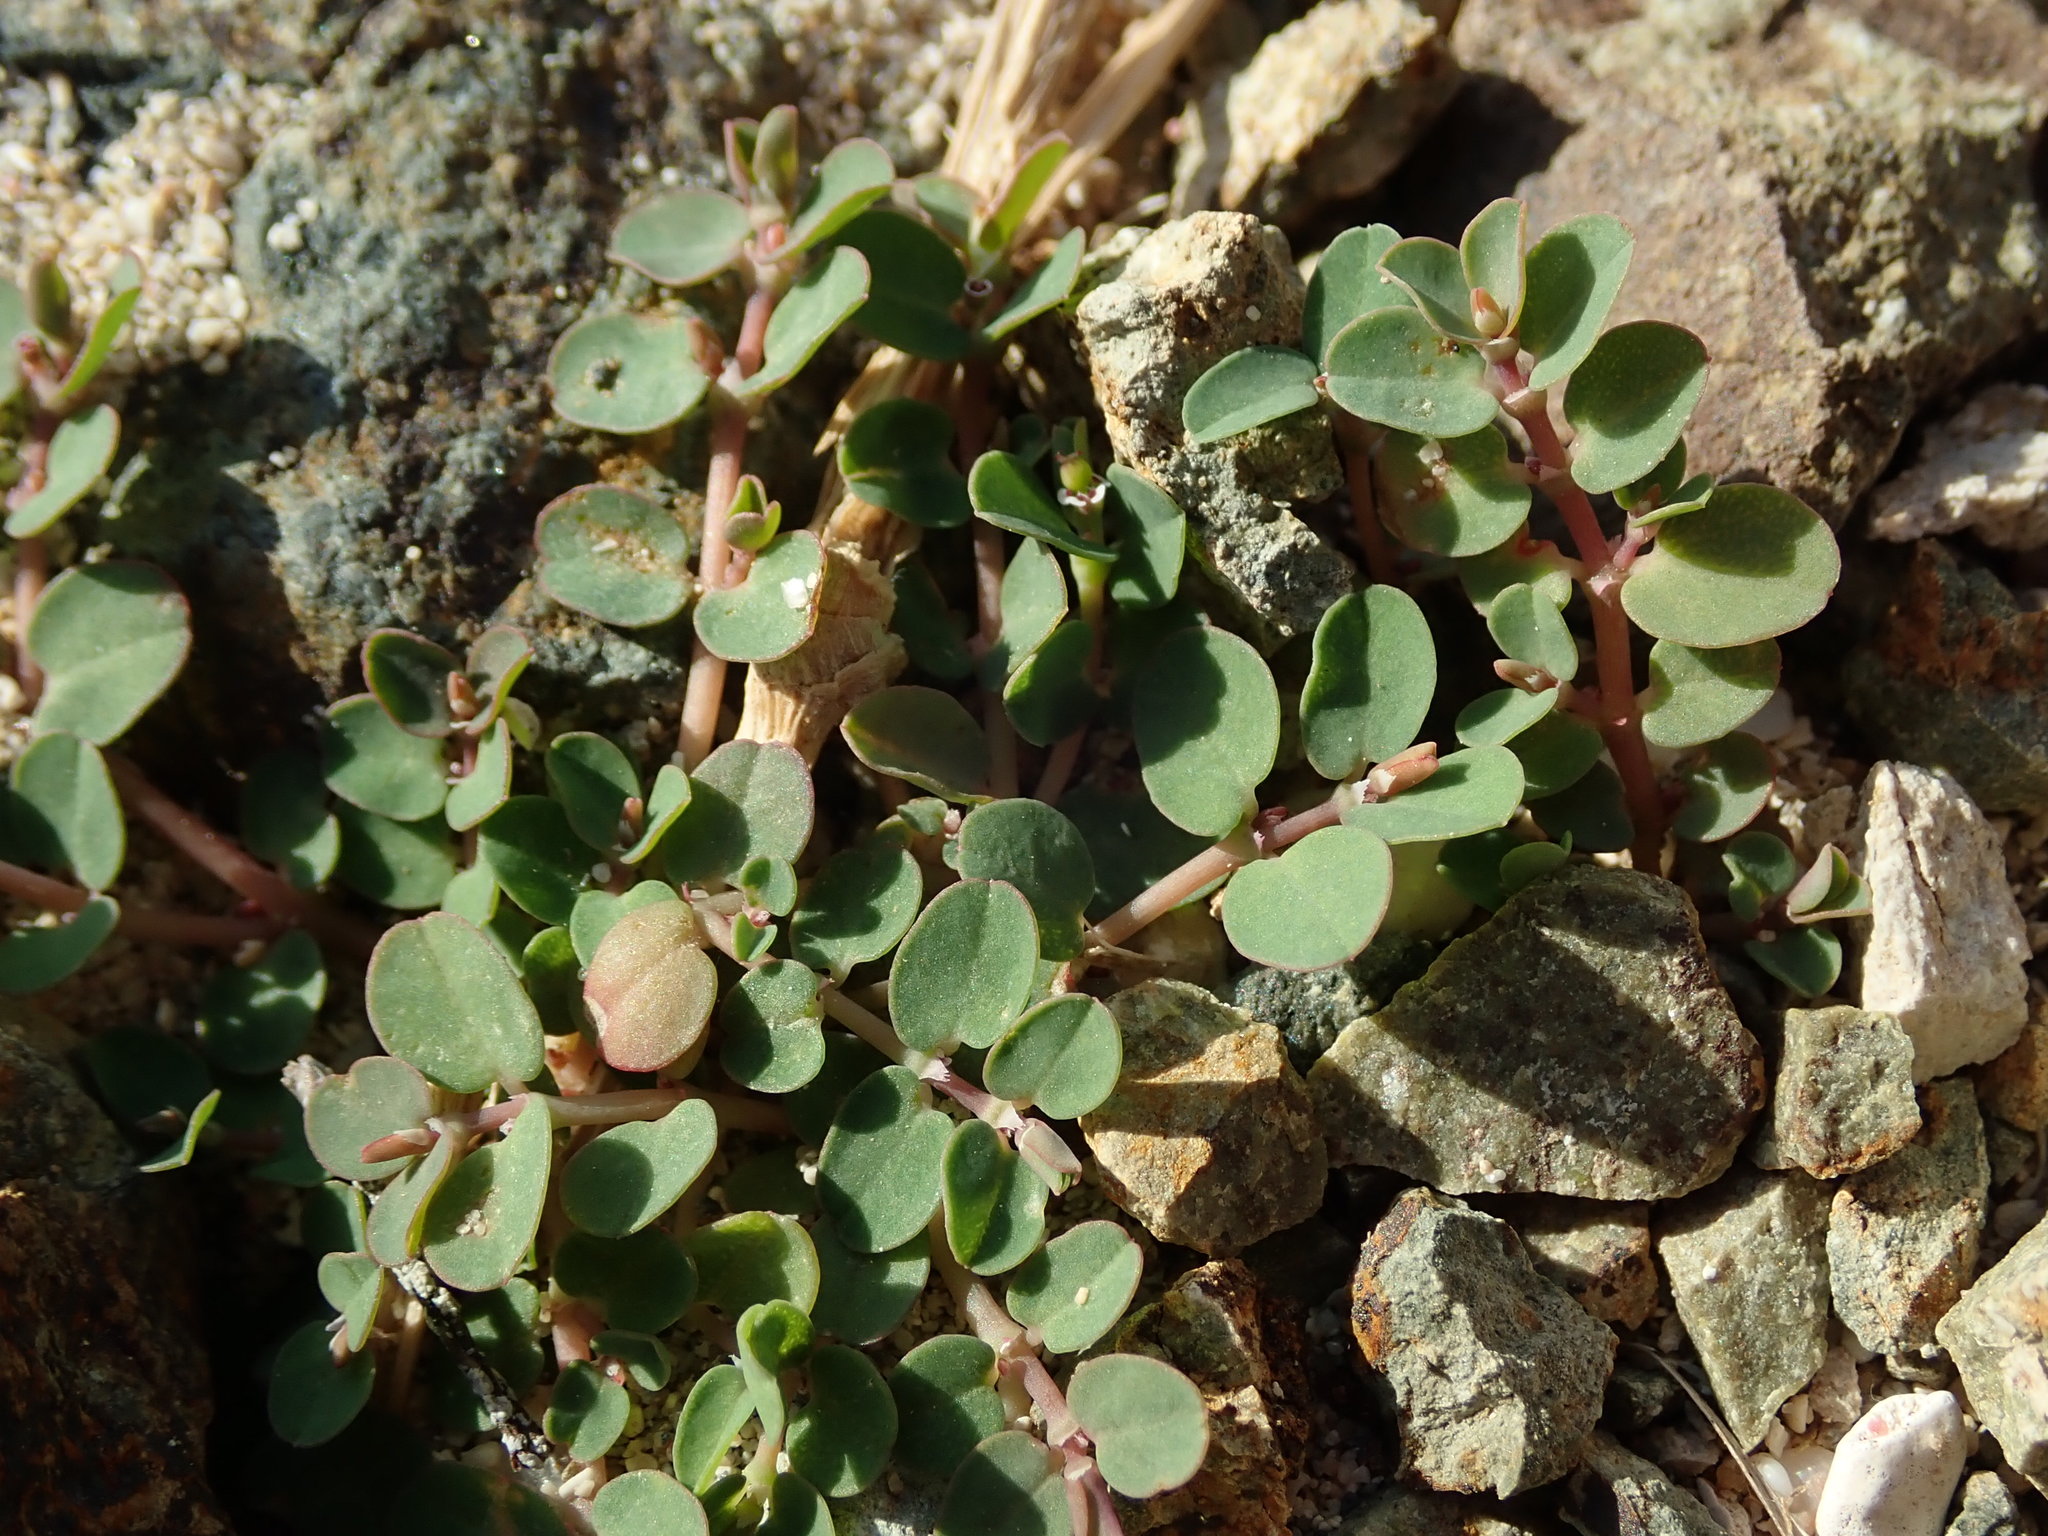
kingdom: Plantae
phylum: Tracheophyta
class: Magnoliopsida
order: Malpighiales
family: Euphorbiaceae
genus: Euphorbia
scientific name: Euphorbia serpens
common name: Matted sandmat
